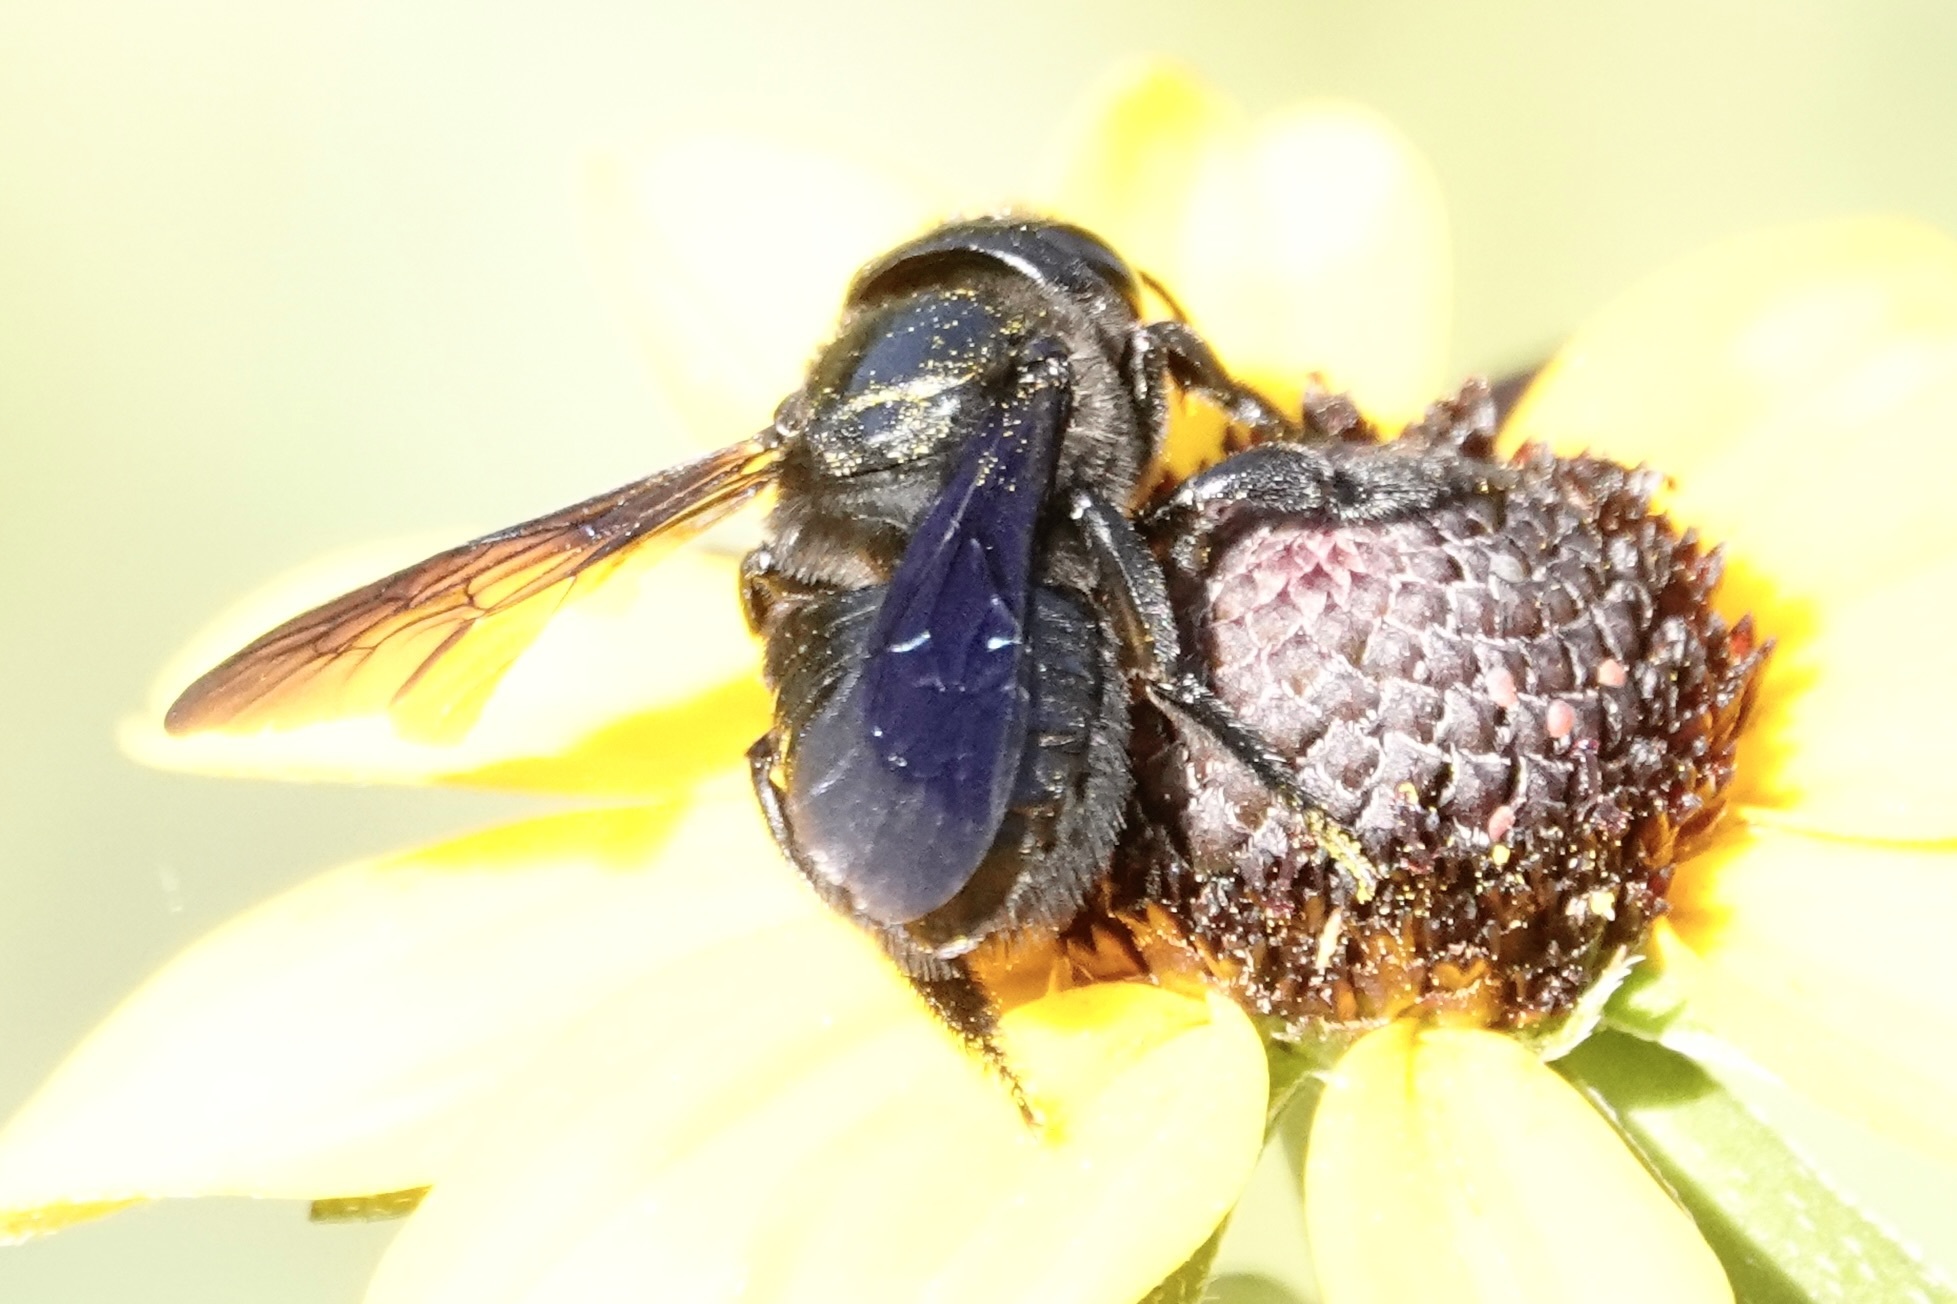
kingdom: Animalia
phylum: Arthropoda
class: Insecta
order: Hymenoptera
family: Megachilidae
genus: Megachile
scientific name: Megachile xylocopoides
